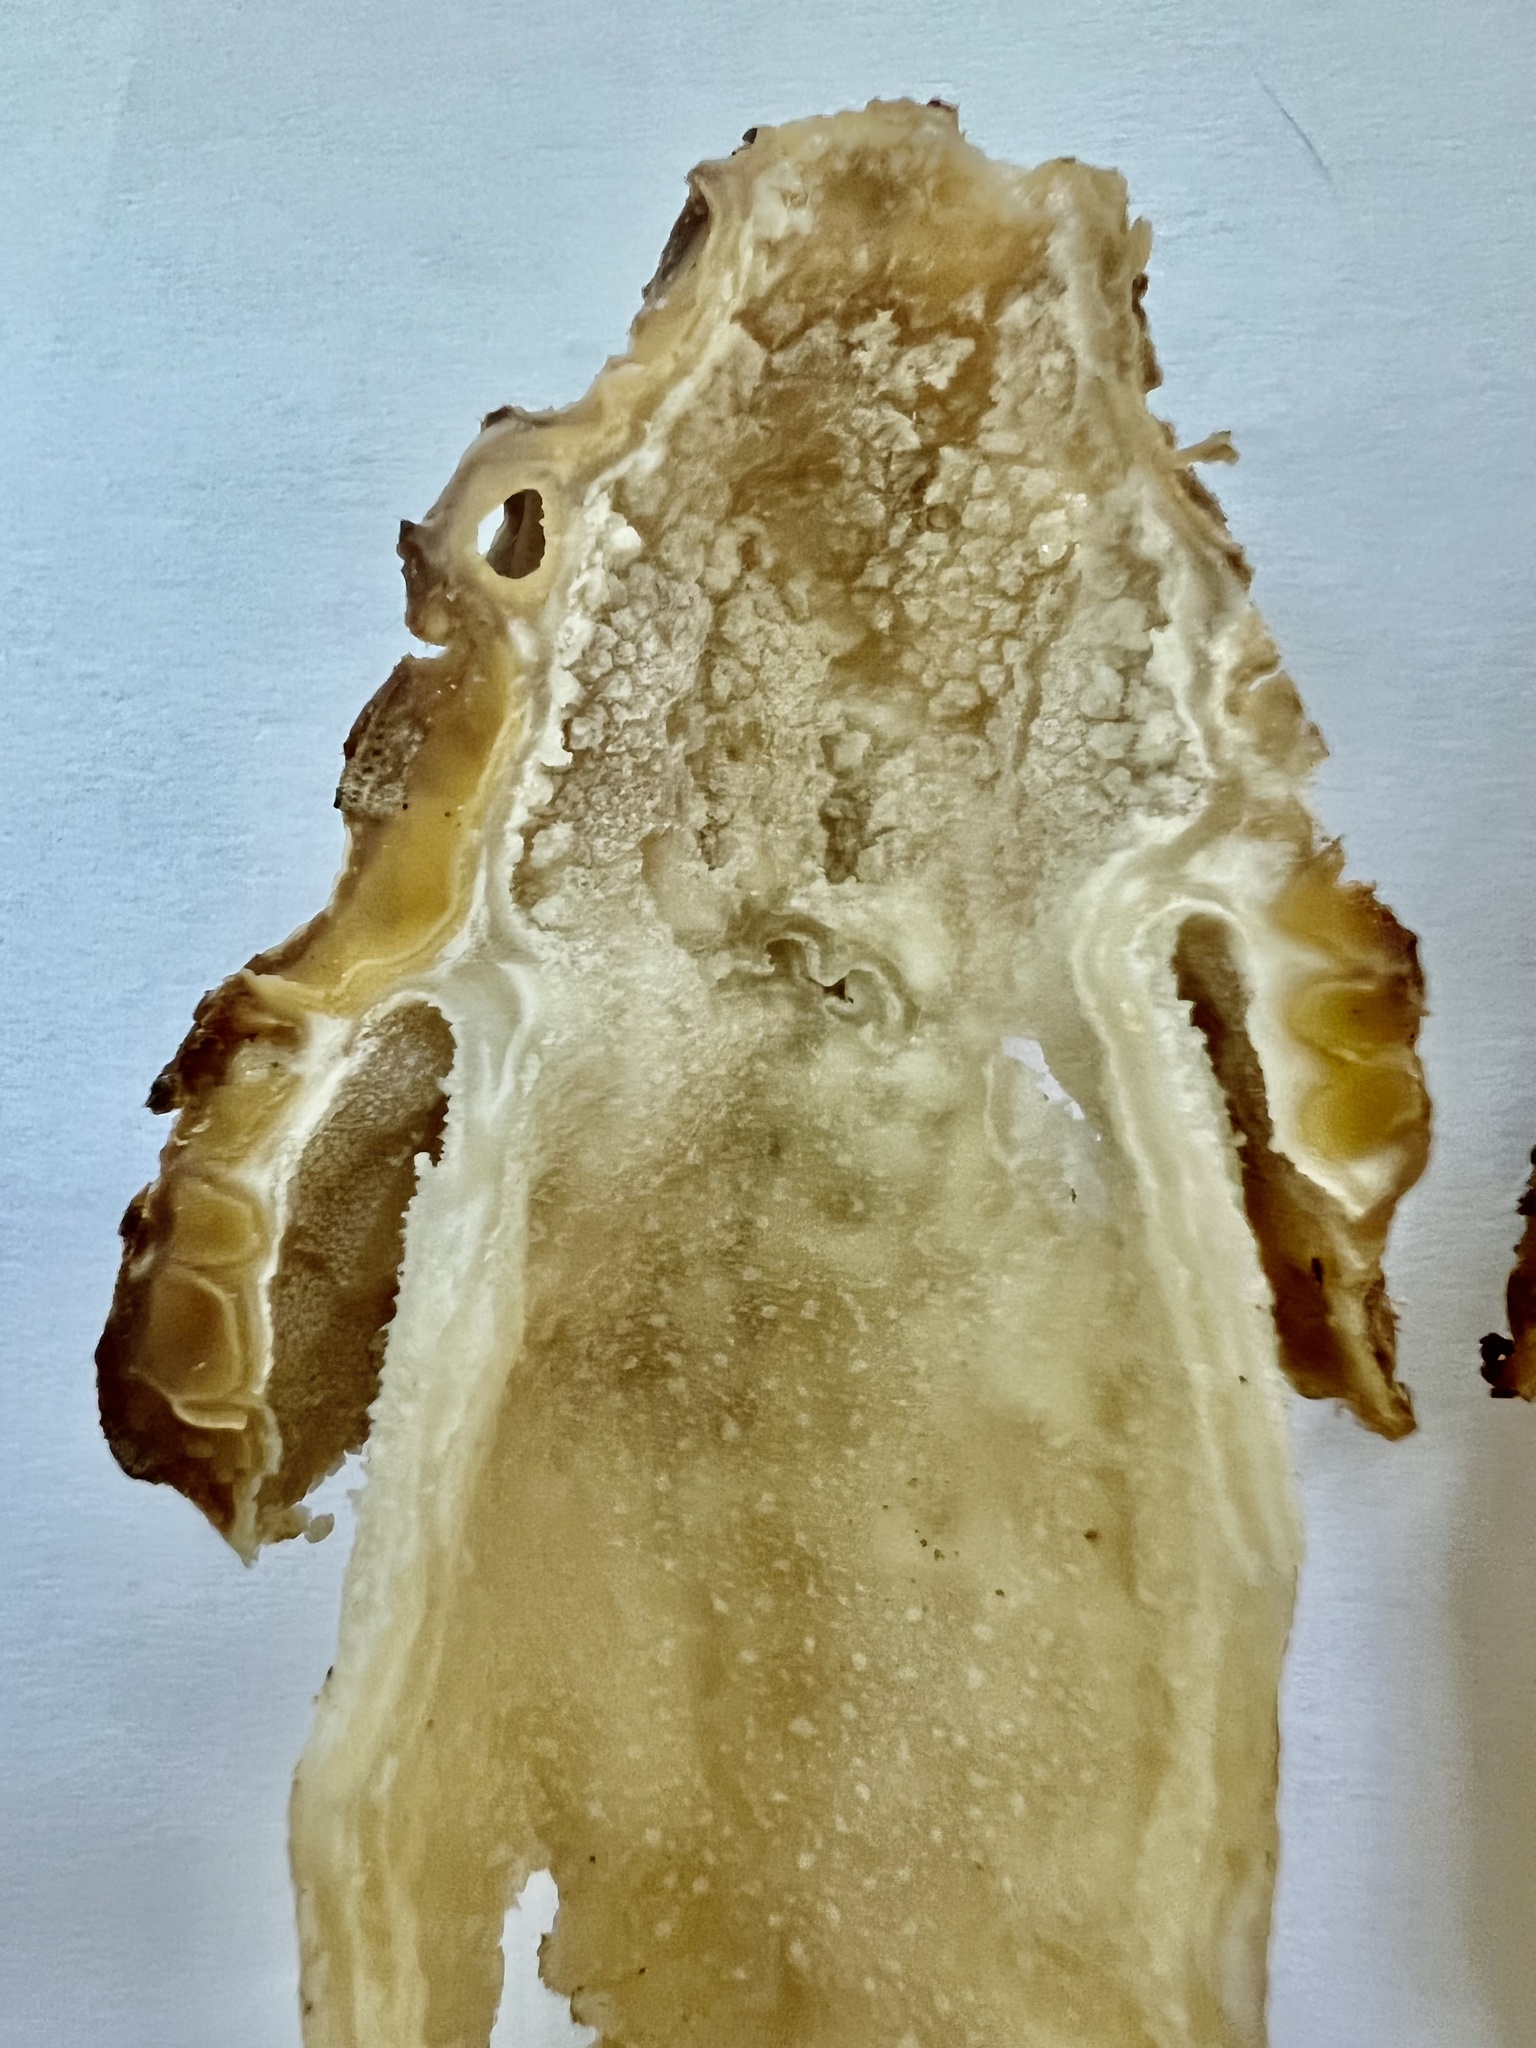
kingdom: Fungi
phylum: Ascomycota
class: Pezizomycetes
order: Pezizales
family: Morchellaceae
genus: Morchella
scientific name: Morchella punctipes
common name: Half-free morel
